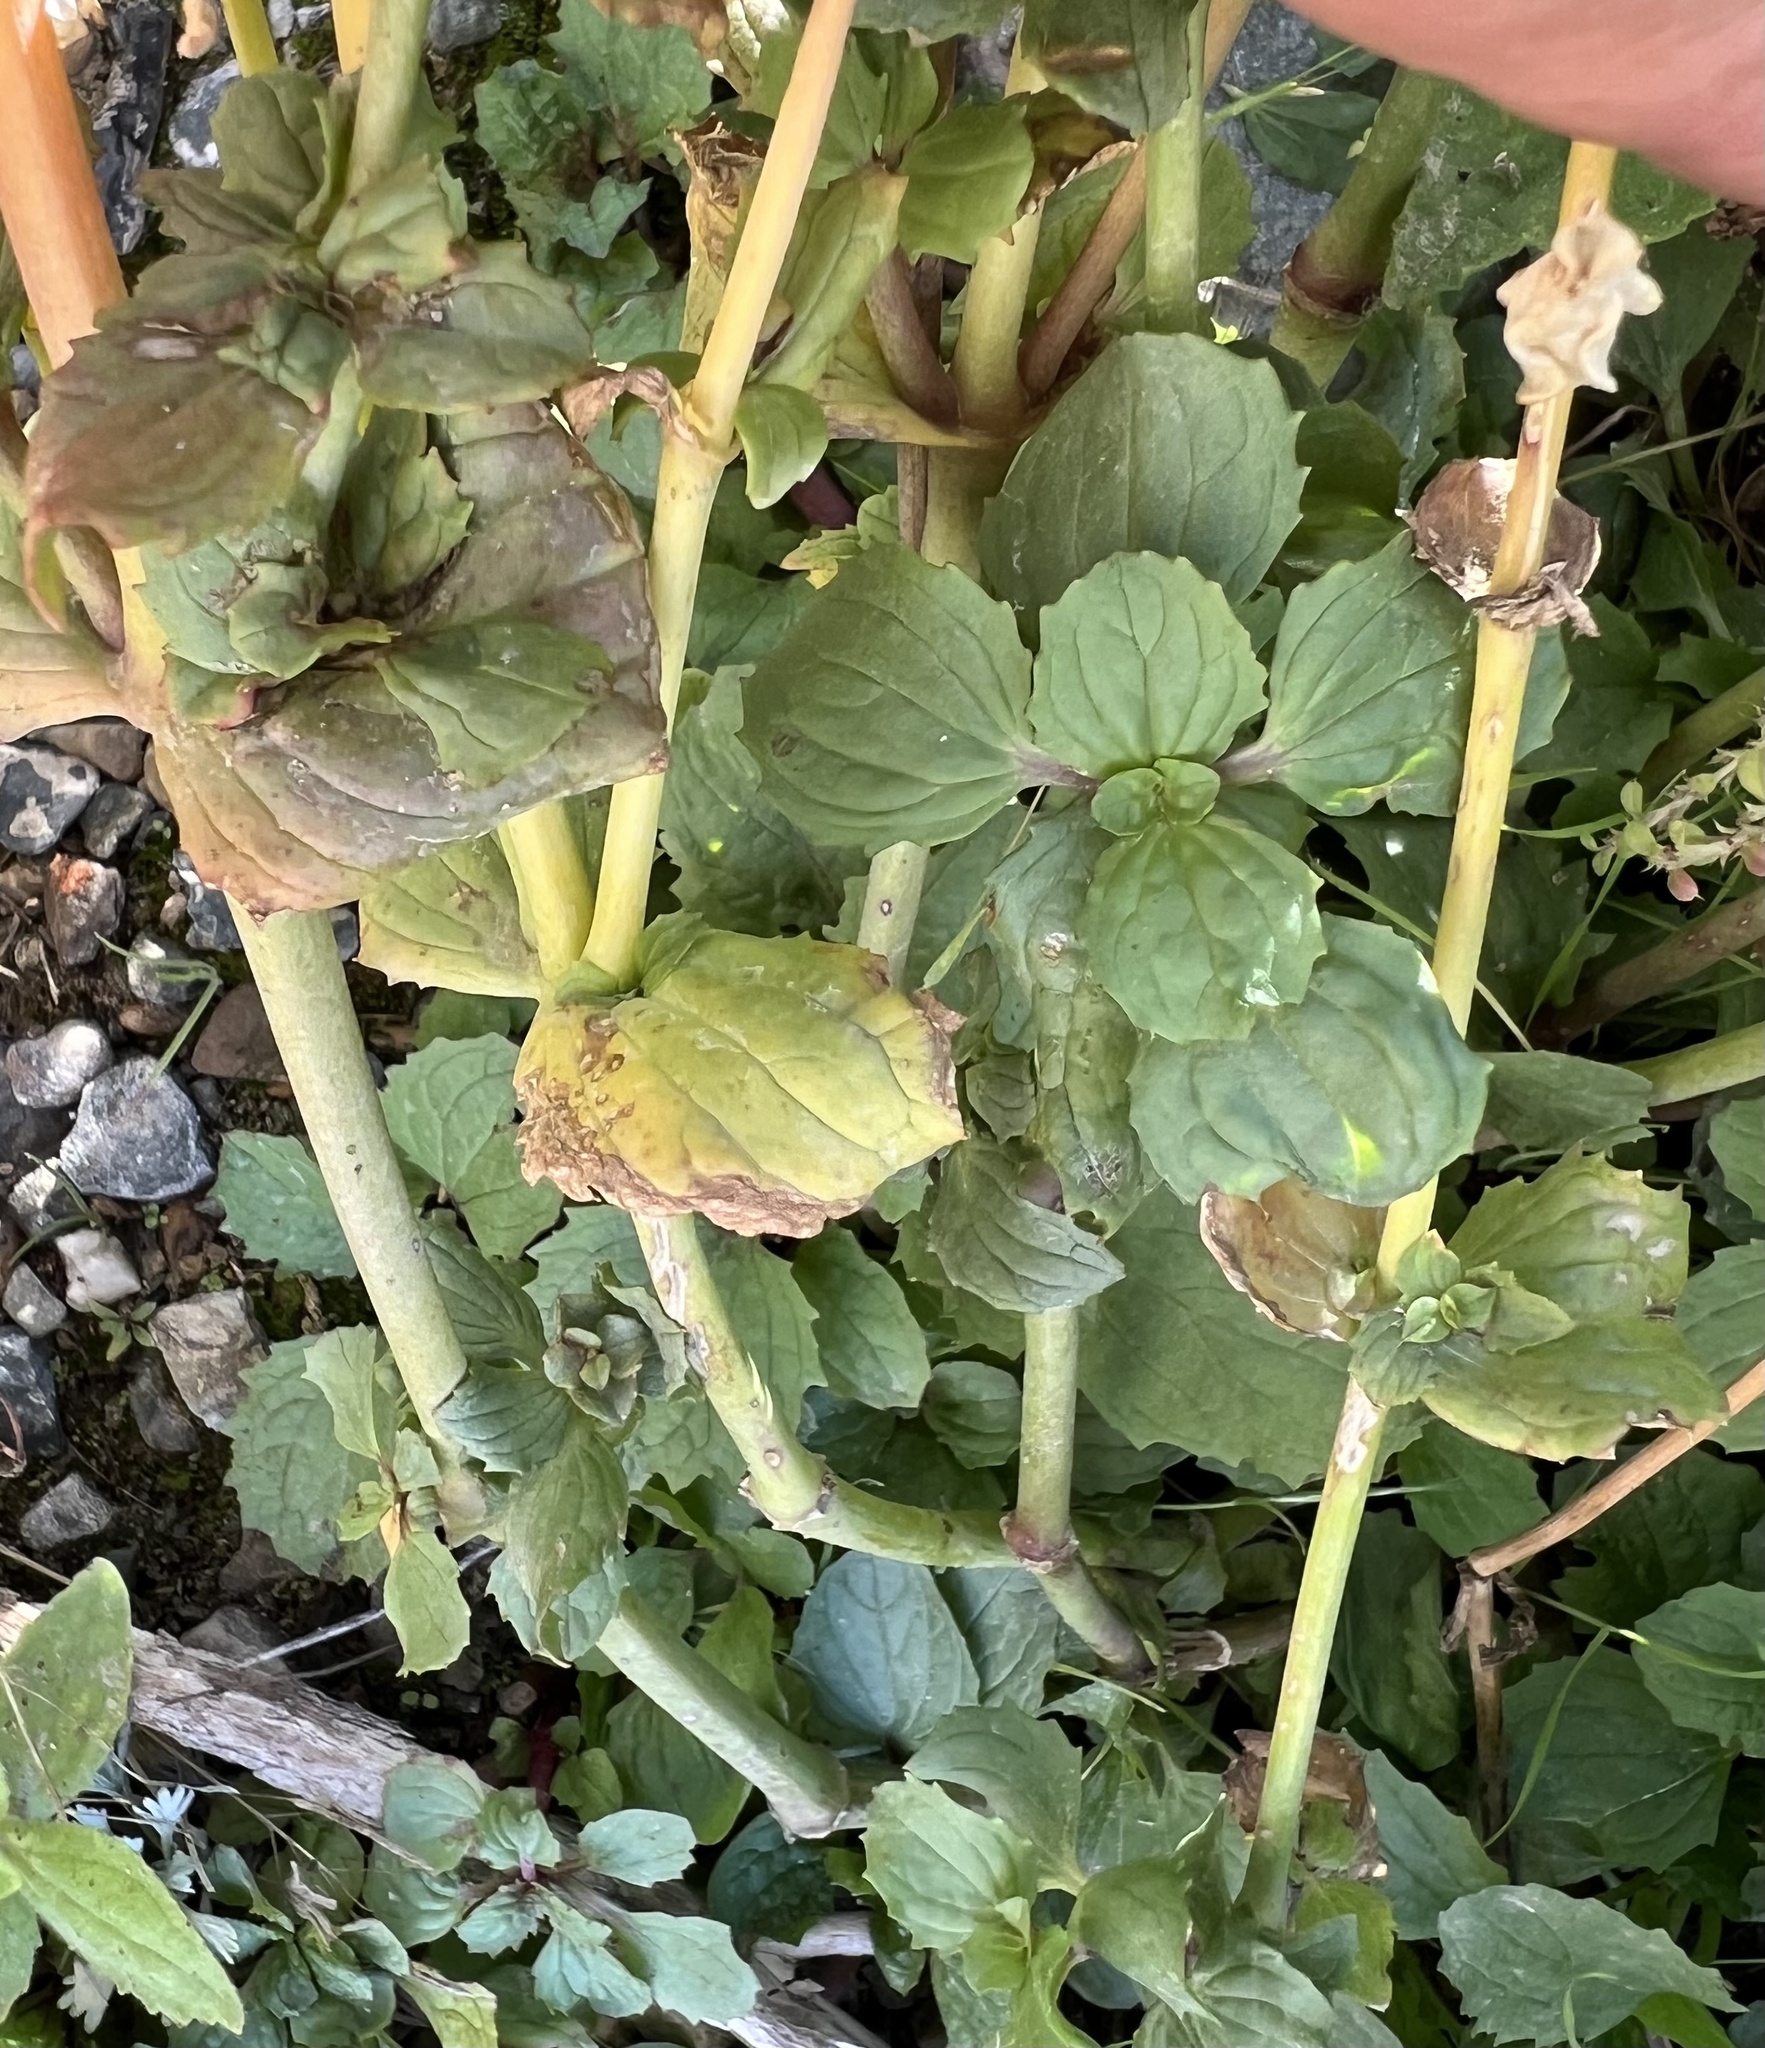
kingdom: Plantae
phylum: Tracheophyta
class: Magnoliopsida
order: Lamiales
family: Phrymaceae
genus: Erythranthe
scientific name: Erythranthe guttata
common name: Monkeyflower
